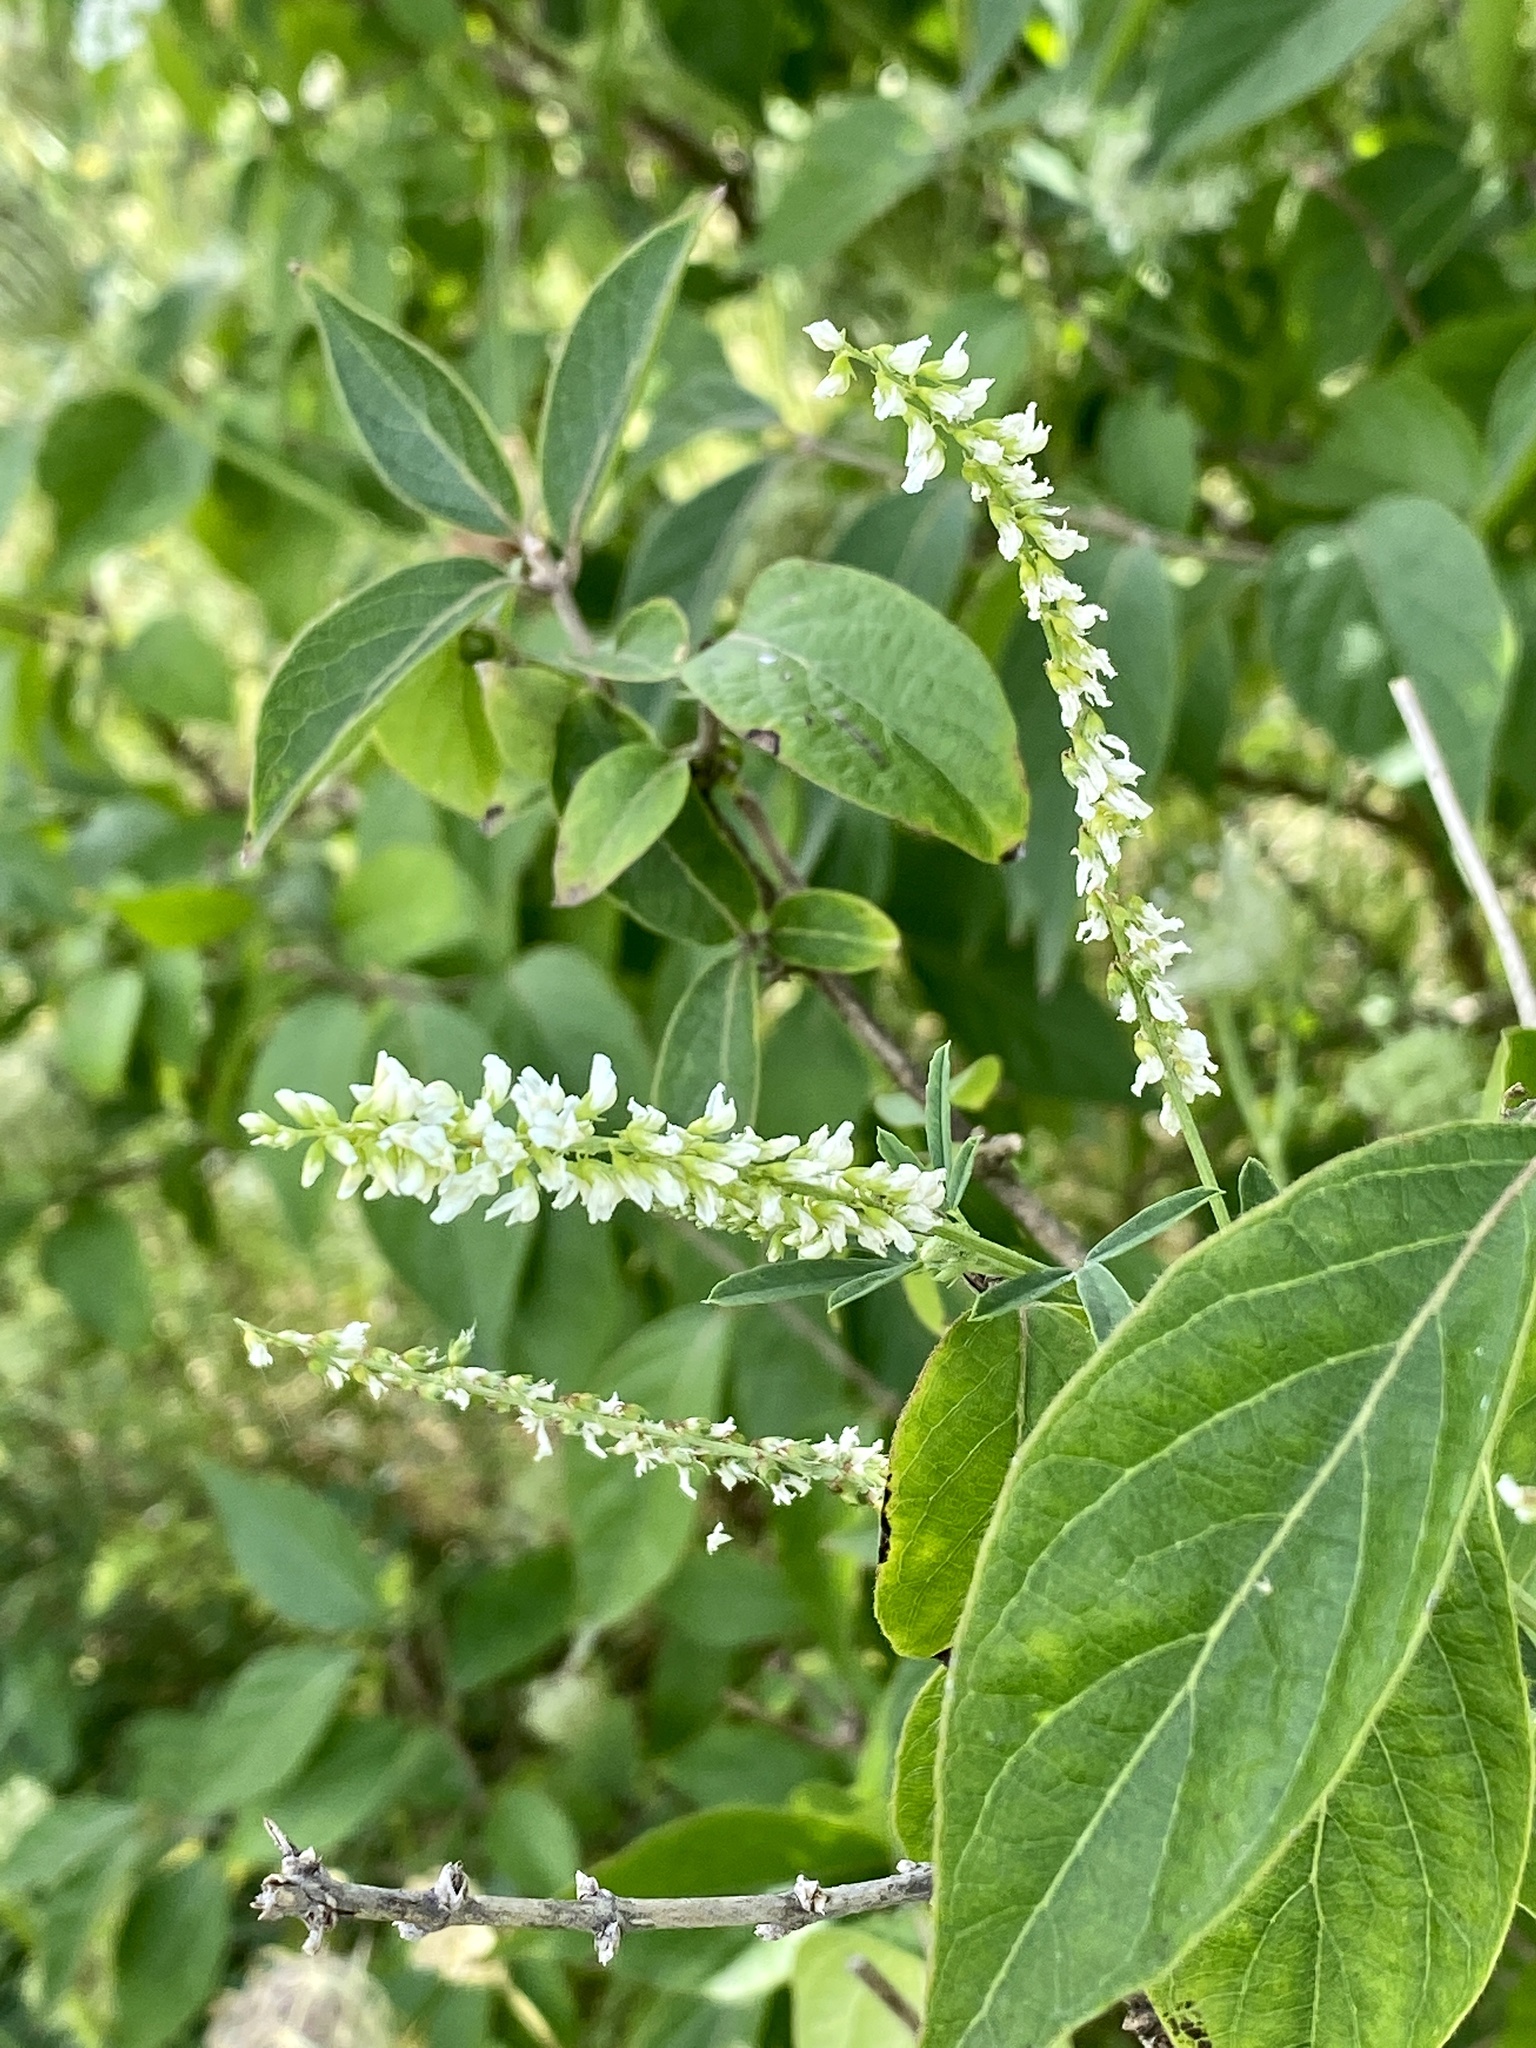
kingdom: Plantae
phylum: Tracheophyta
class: Magnoliopsida
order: Fabales
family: Fabaceae
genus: Melilotus
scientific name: Melilotus albus
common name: White melilot
